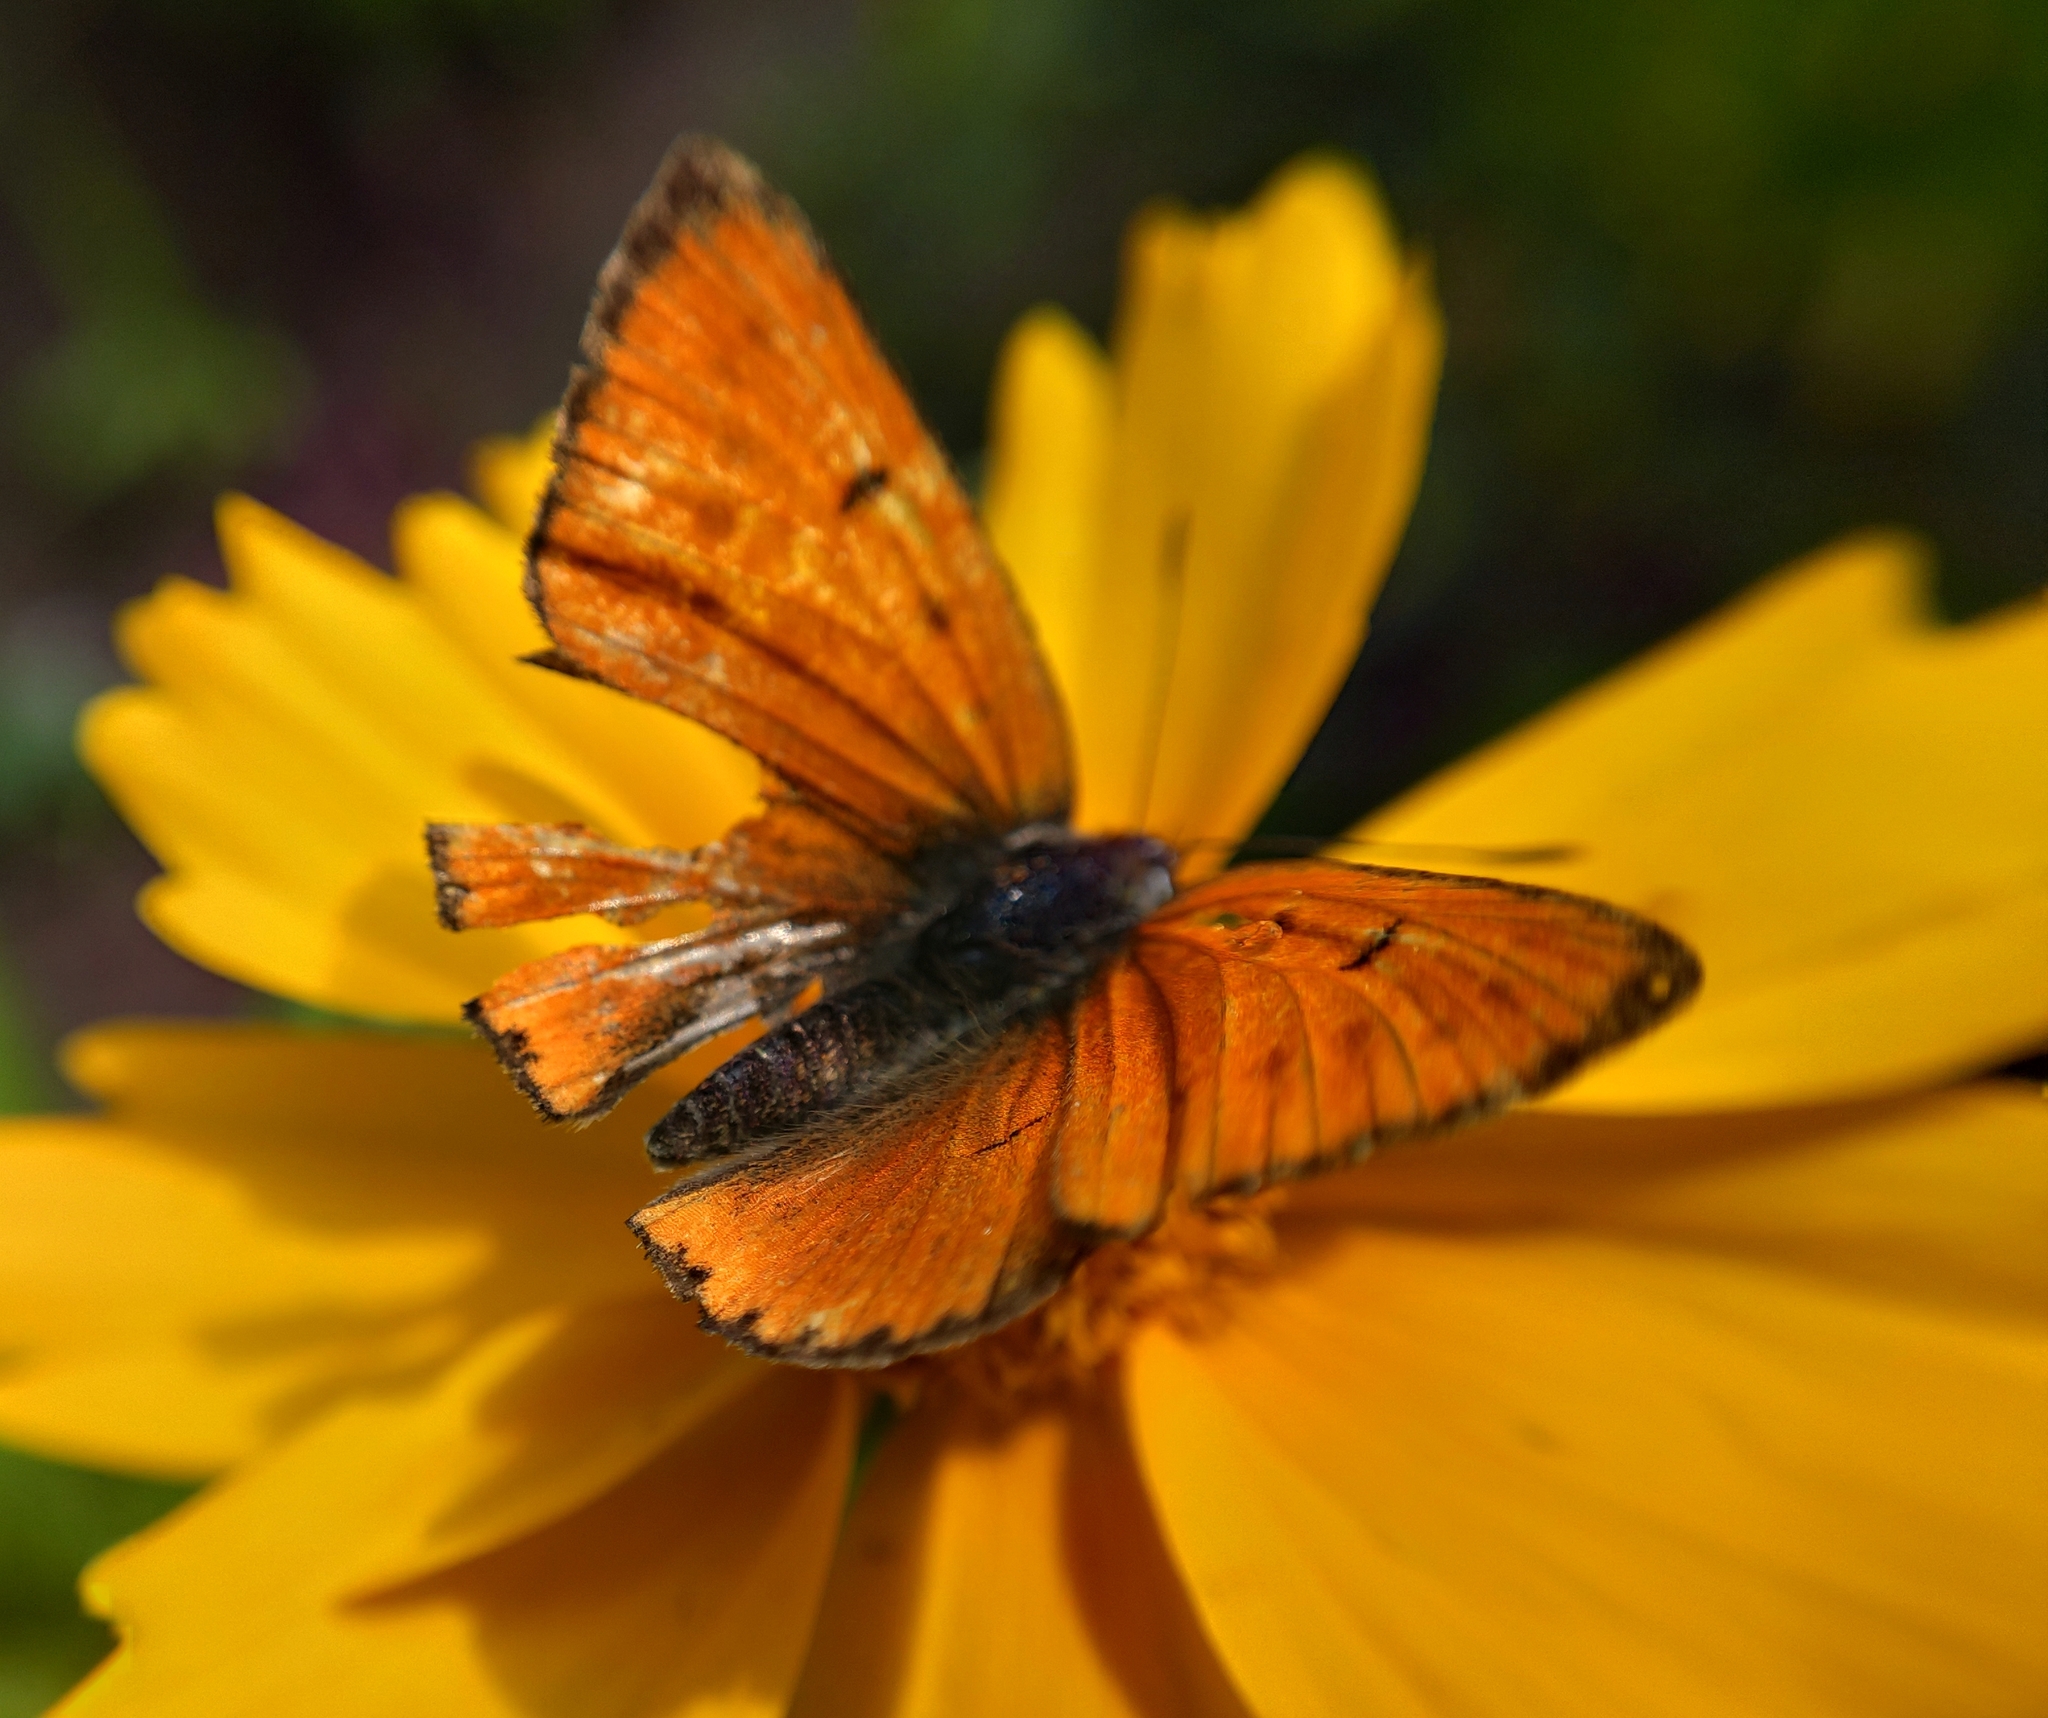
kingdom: Animalia
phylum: Arthropoda
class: Insecta
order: Lepidoptera
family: Lycaenidae
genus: Lycaena
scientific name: Lycaena dispar
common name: Large copper
